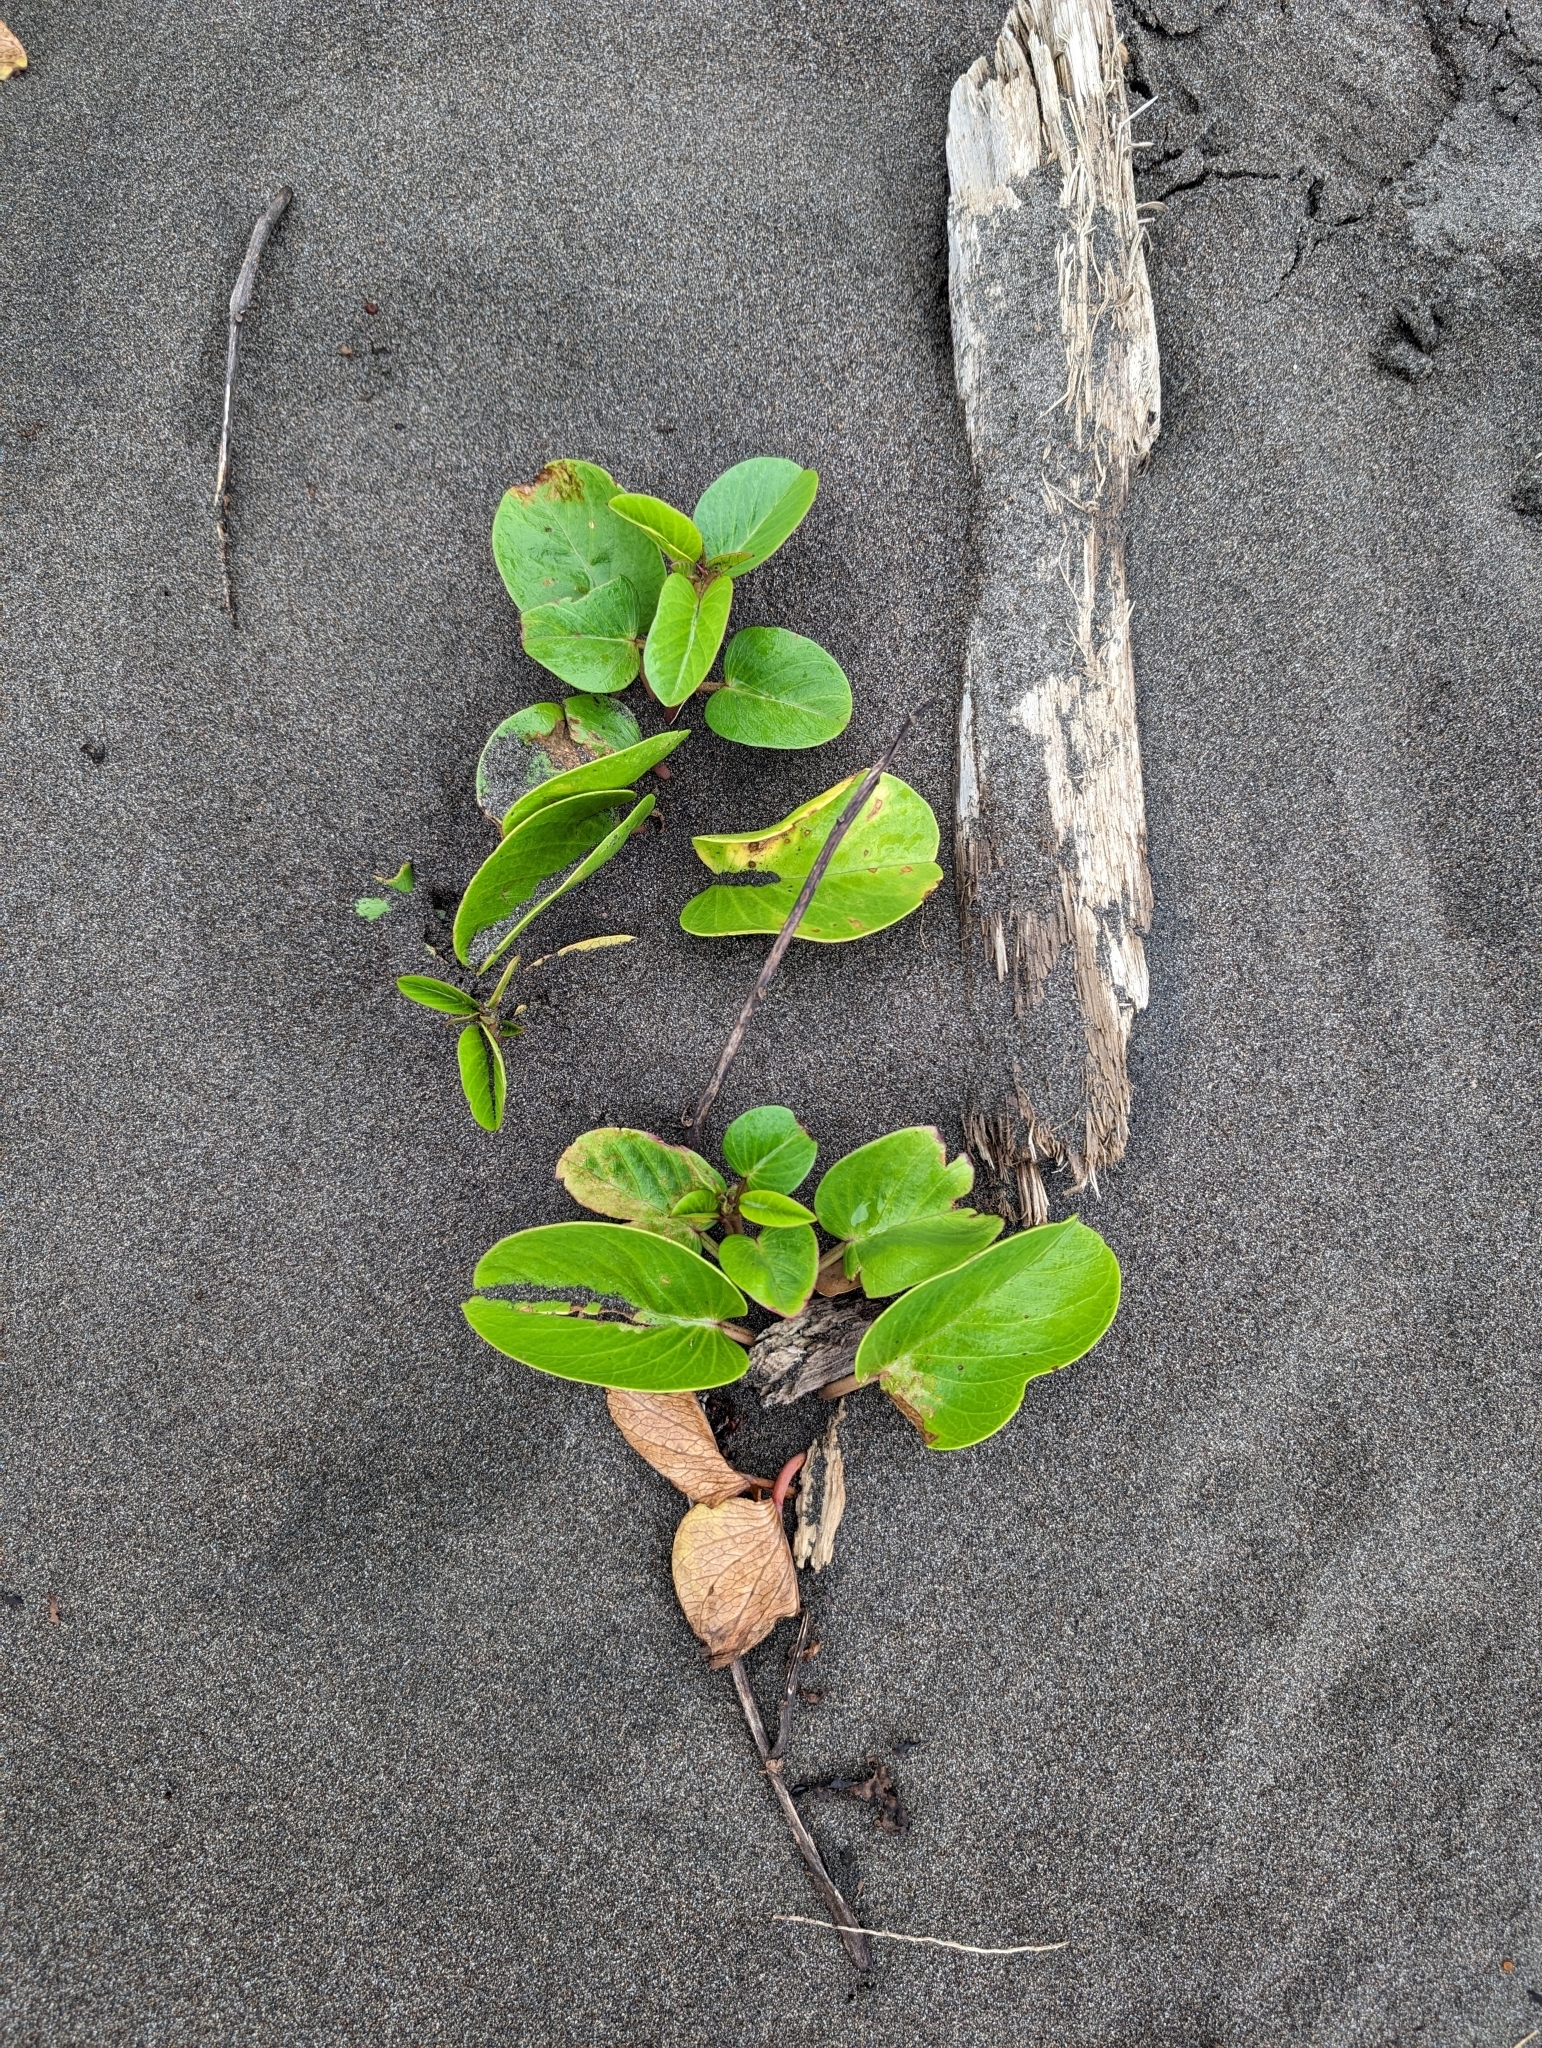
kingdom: Plantae
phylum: Tracheophyta
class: Magnoliopsida
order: Solanales
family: Convolvulaceae
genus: Ipomoea
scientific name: Ipomoea pes-caprae
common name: Beach morning glory
